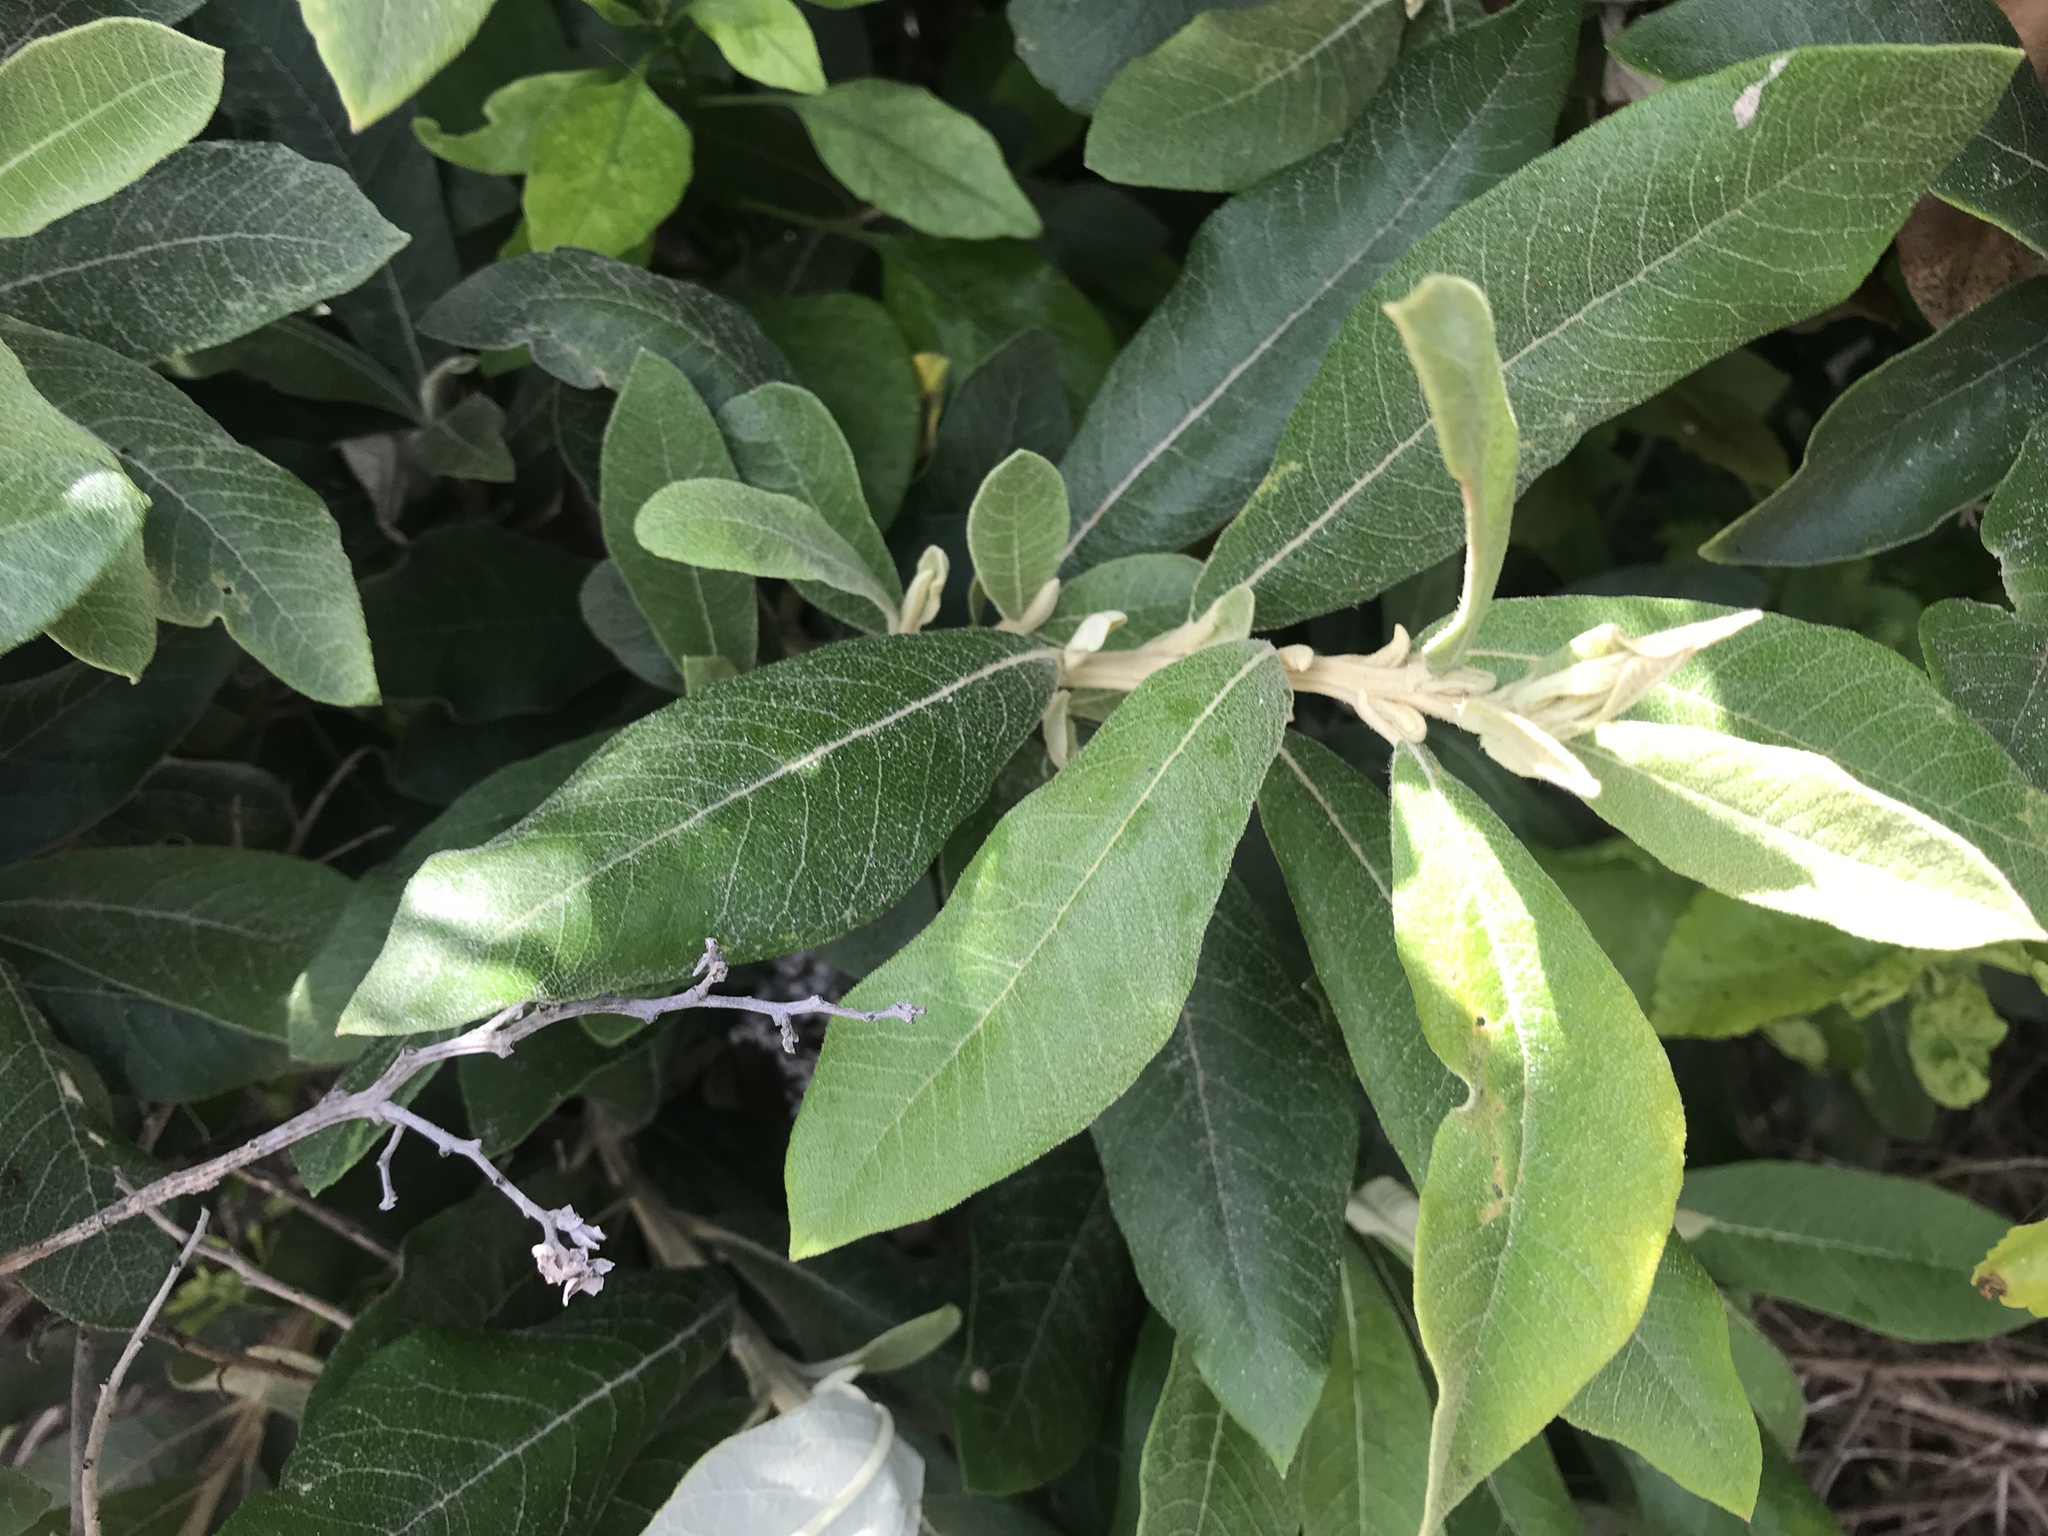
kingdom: Plantae
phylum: Tracheophyta
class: Magnoliopsida
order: Asterales
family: Asteraceae
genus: Tarchonanthus
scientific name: Tarchonanthus littoralis
